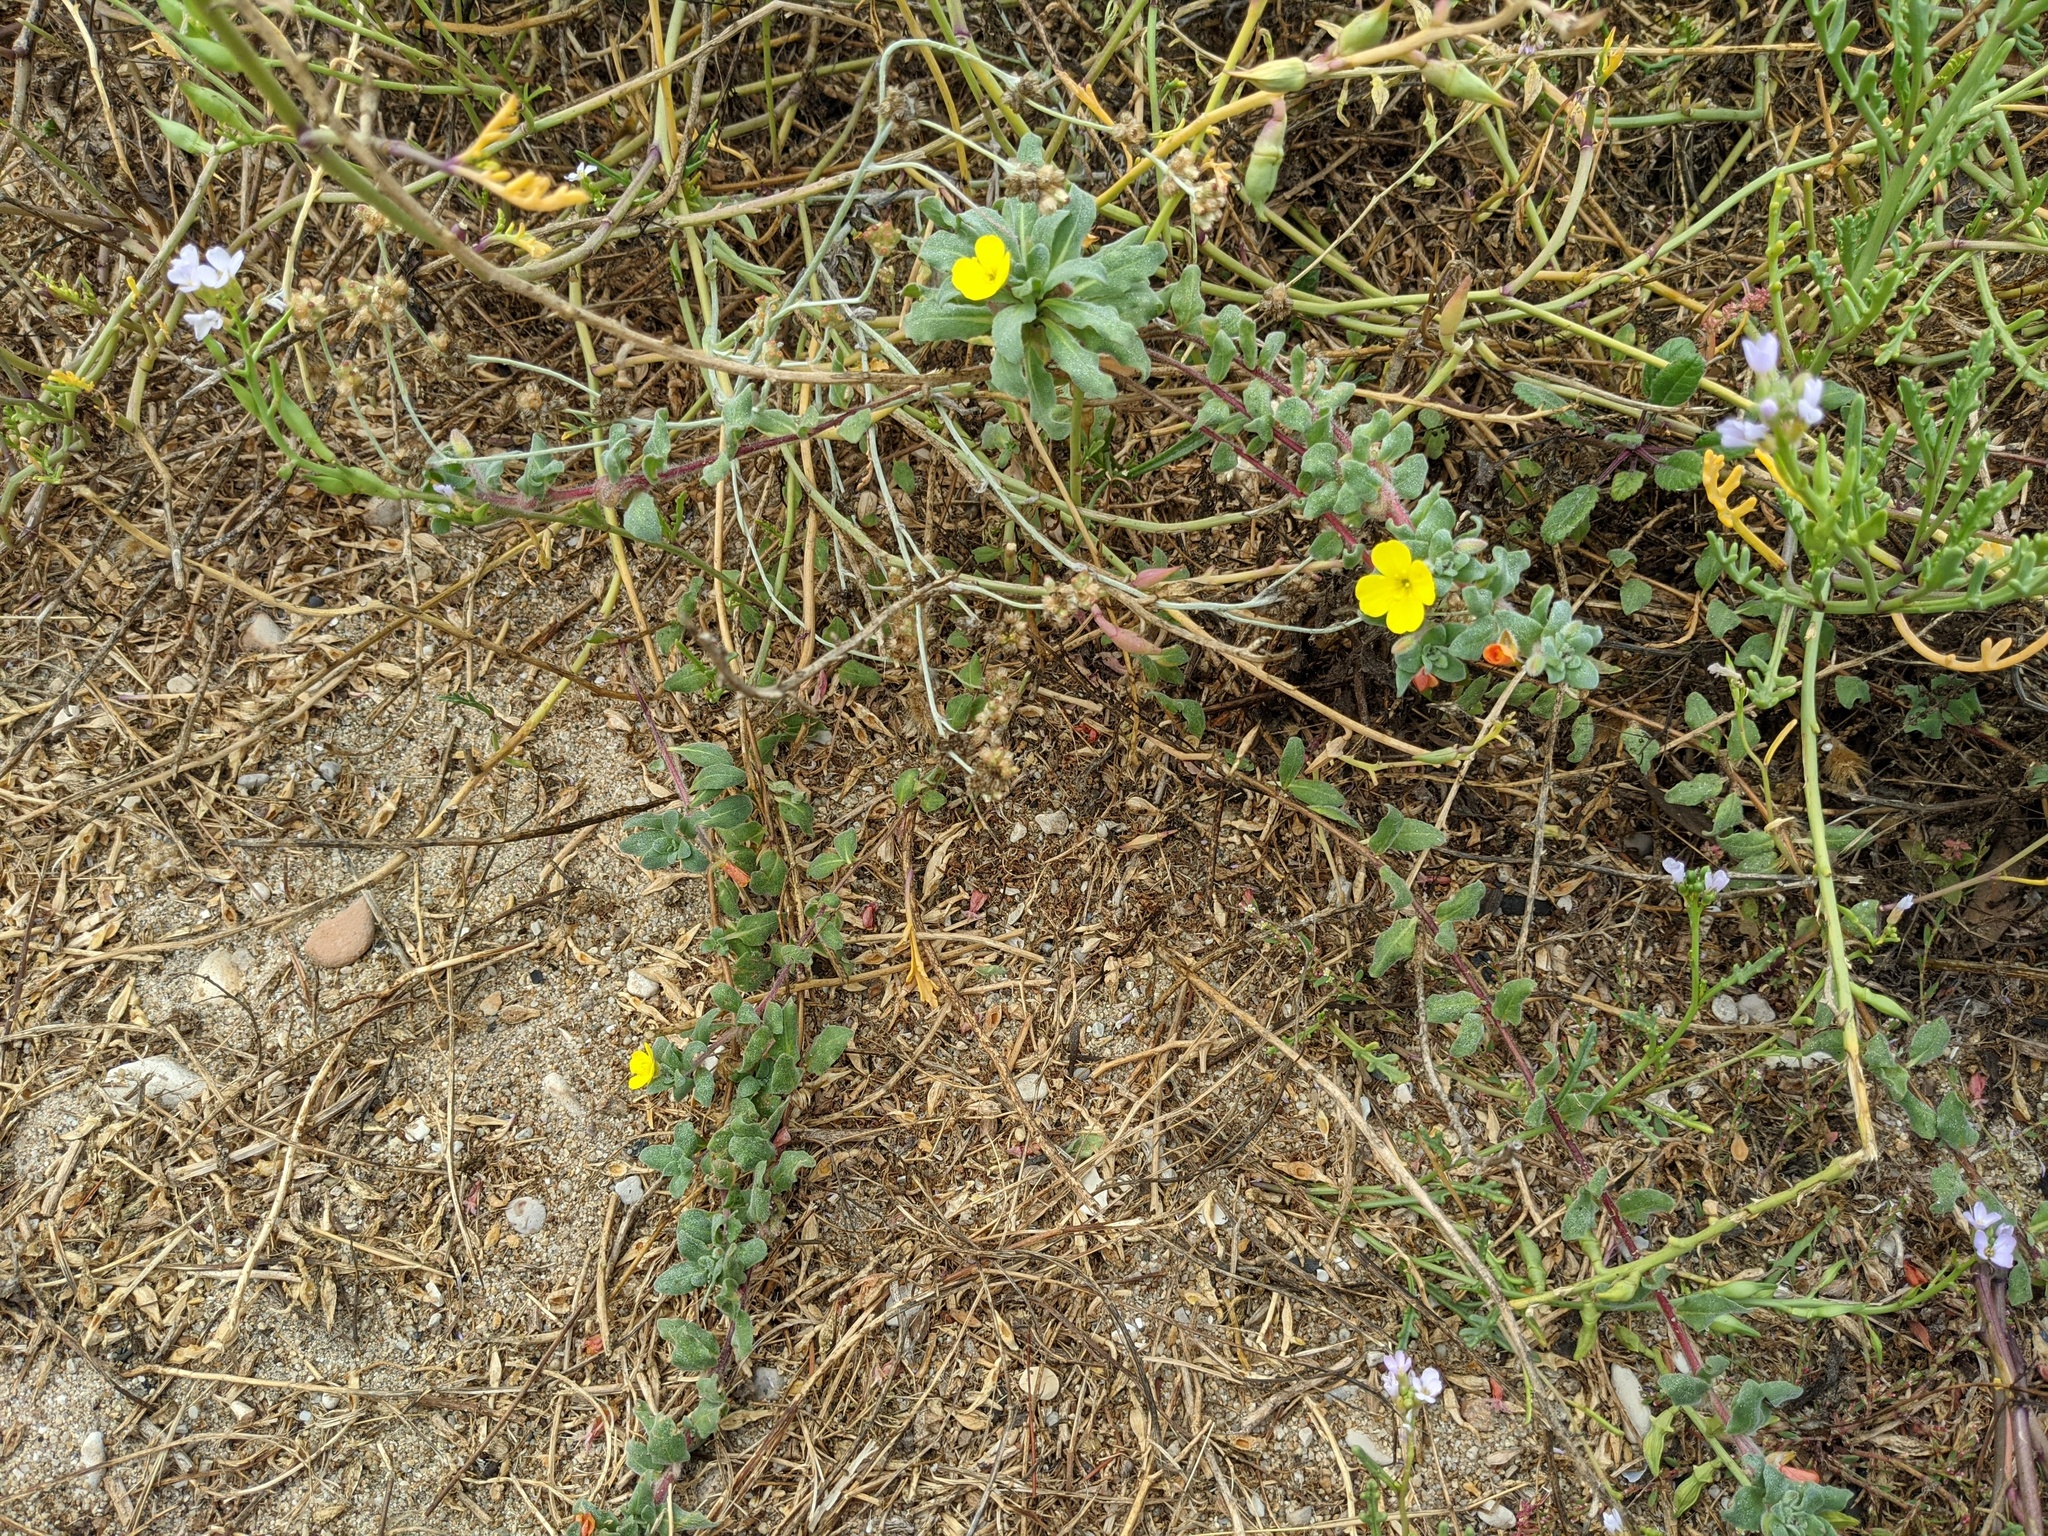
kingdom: Plantae
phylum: Tracheophyta
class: Magnoliopsida
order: Myrtales
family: Onagraceae
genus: Camissoniopsis
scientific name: Camissoniopsis cheiranthifolia
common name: Beach suncup
